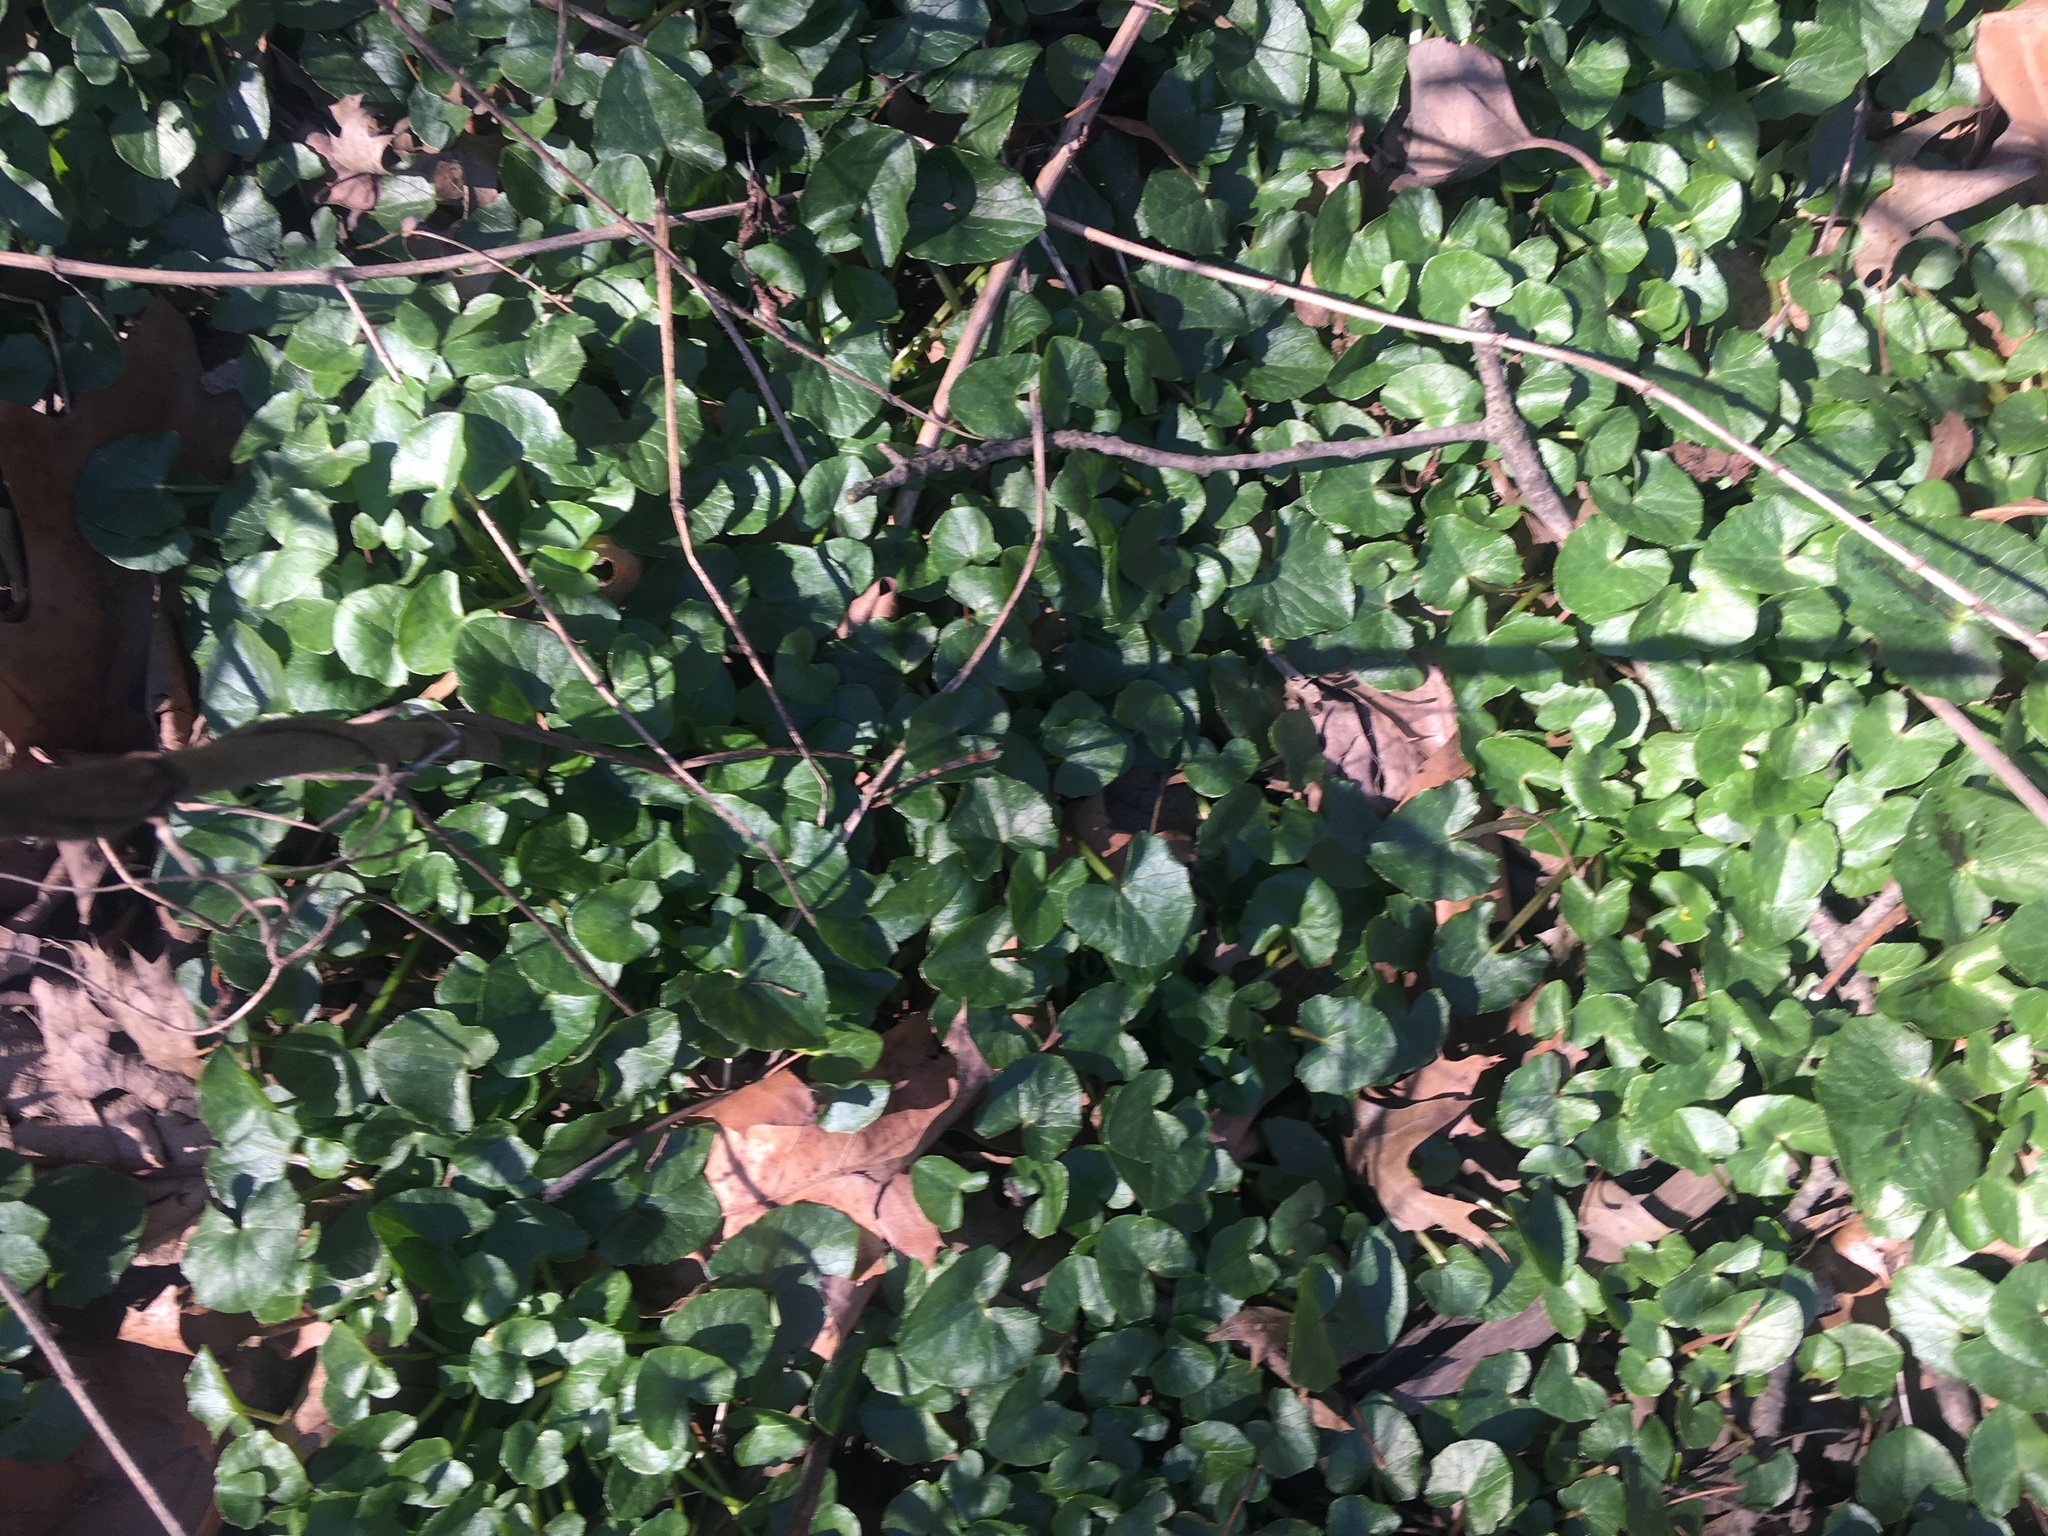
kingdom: Plantae
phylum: Tracheophyta
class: Magnoliopsida
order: Ranunculales
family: Ranunculaceae
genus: Ficaria
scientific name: Ficaria verna
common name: Lesser celandine
